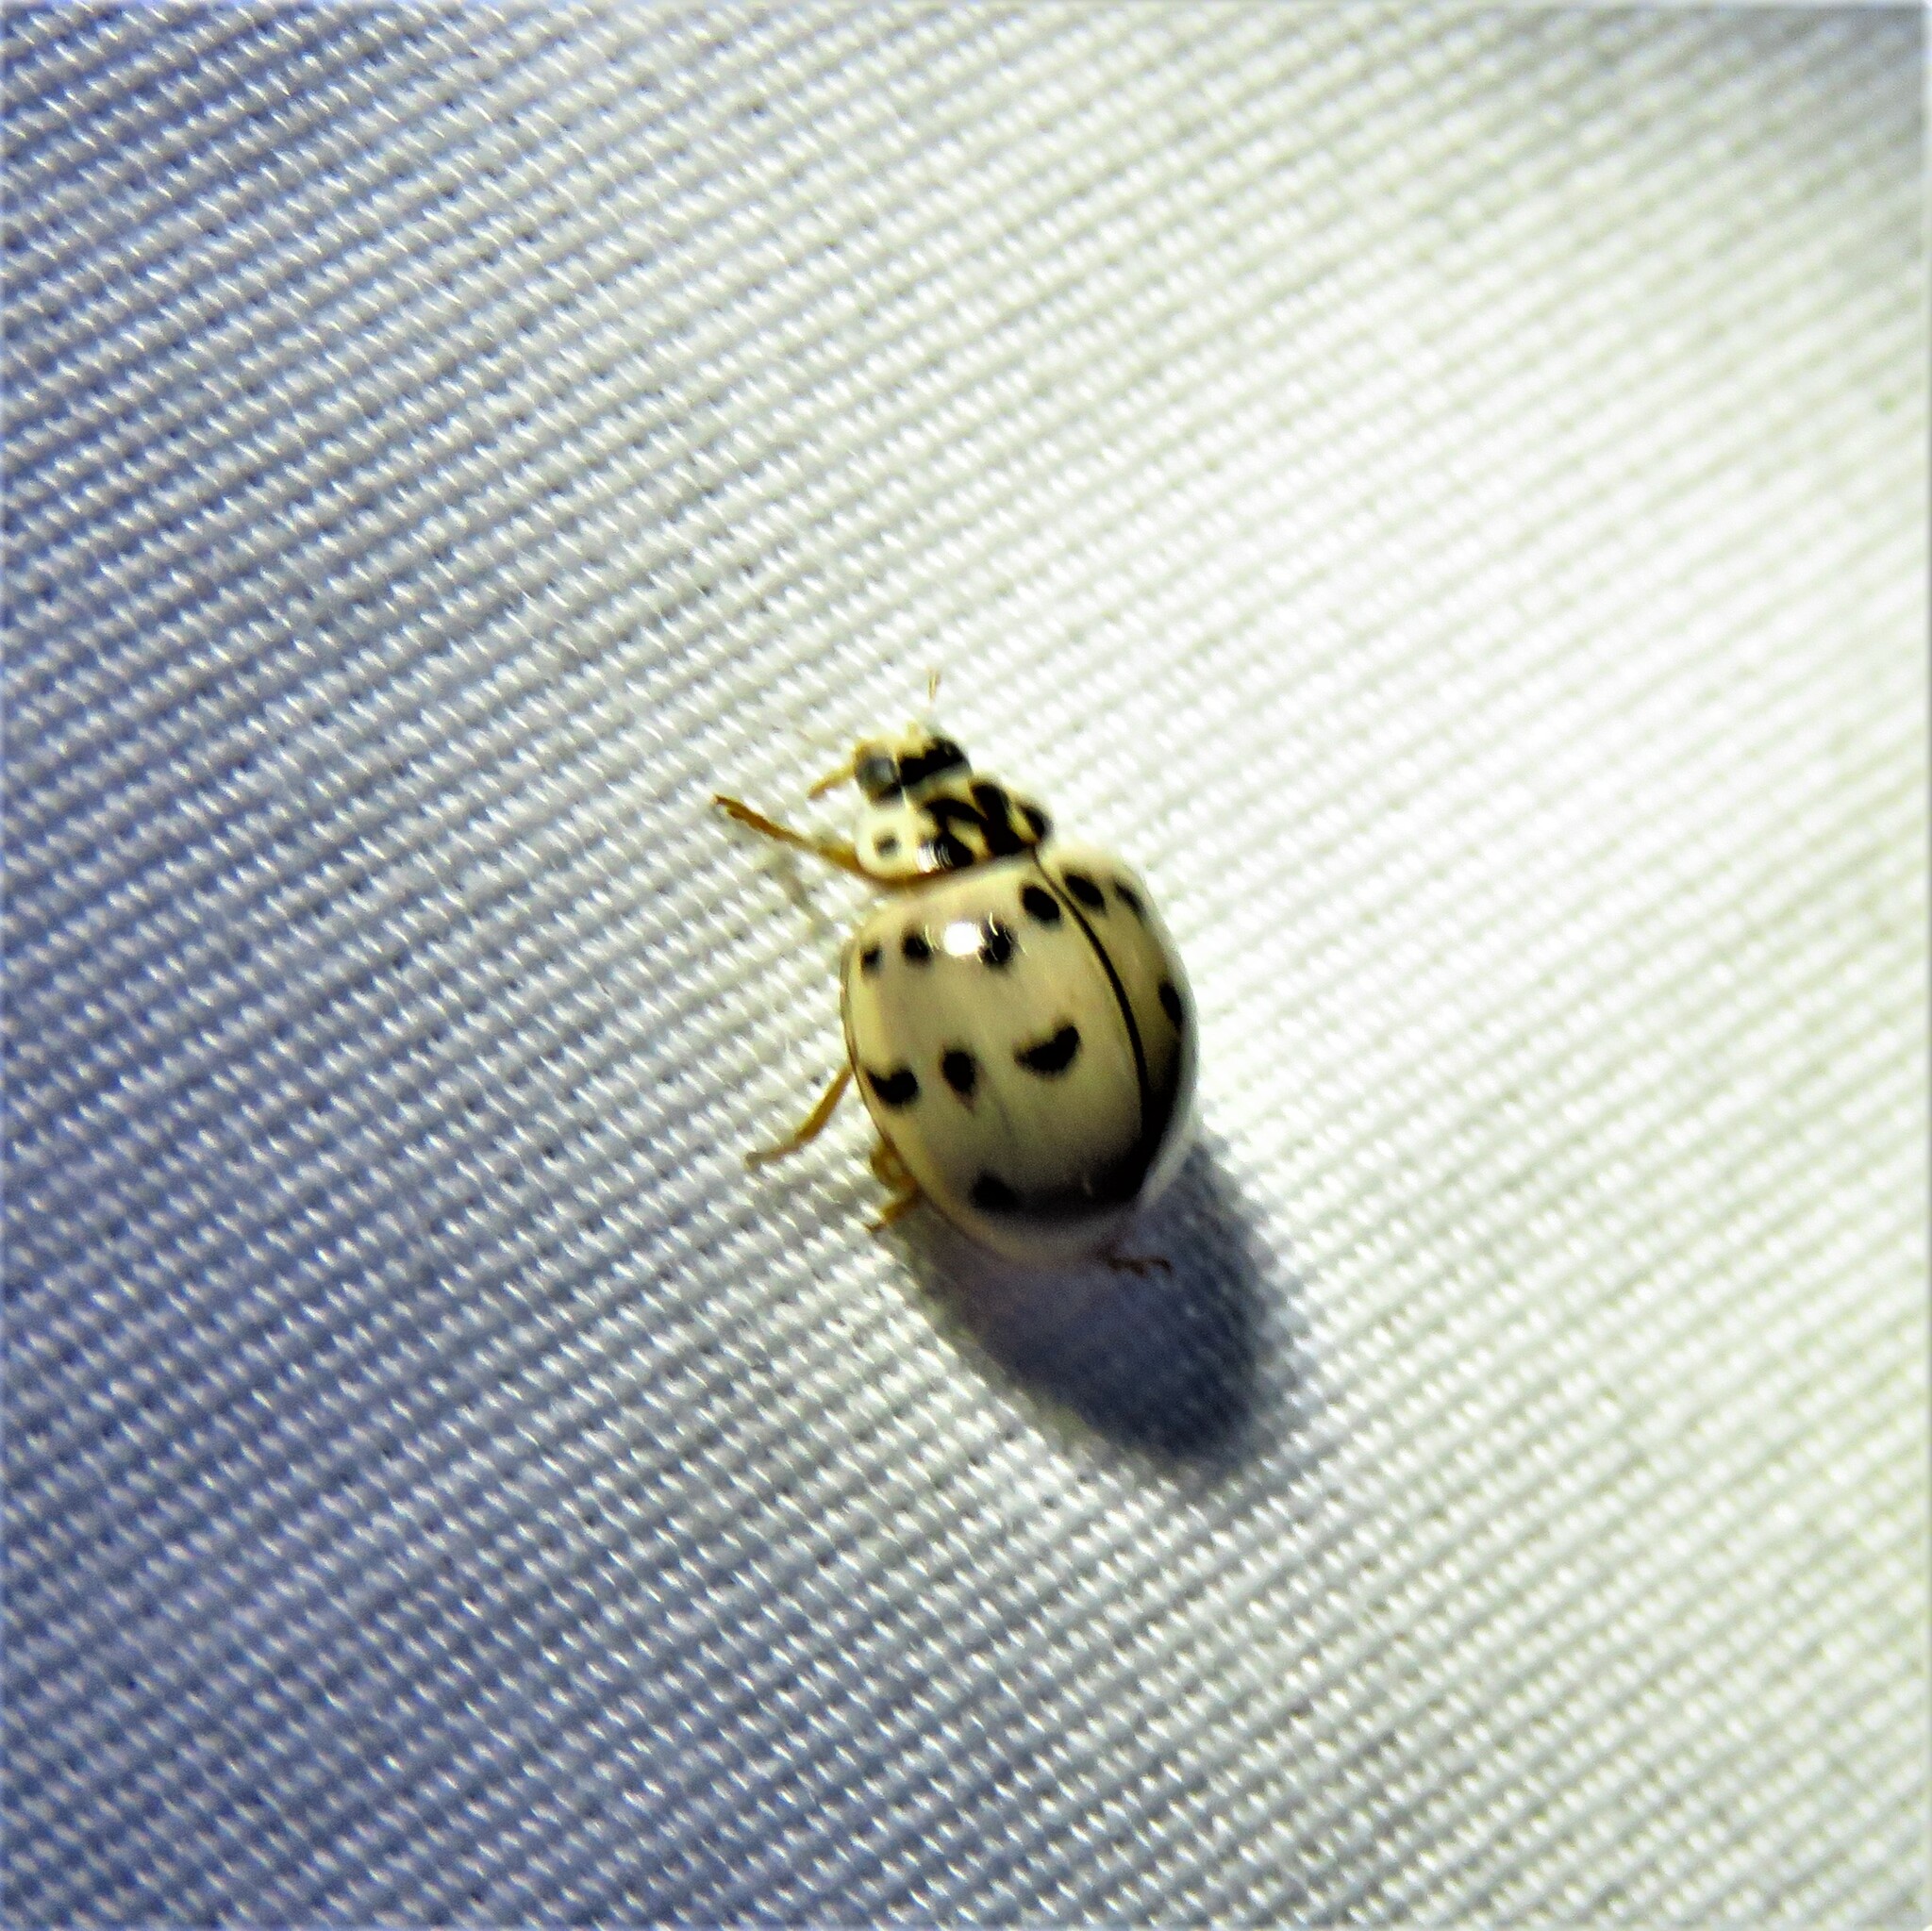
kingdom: Animalia
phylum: Arthropoda
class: Insecta
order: Coleoptera
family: Coccinellidae
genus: Olla
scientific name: Olla v-nigrum
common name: Ashy gray lady beetle
